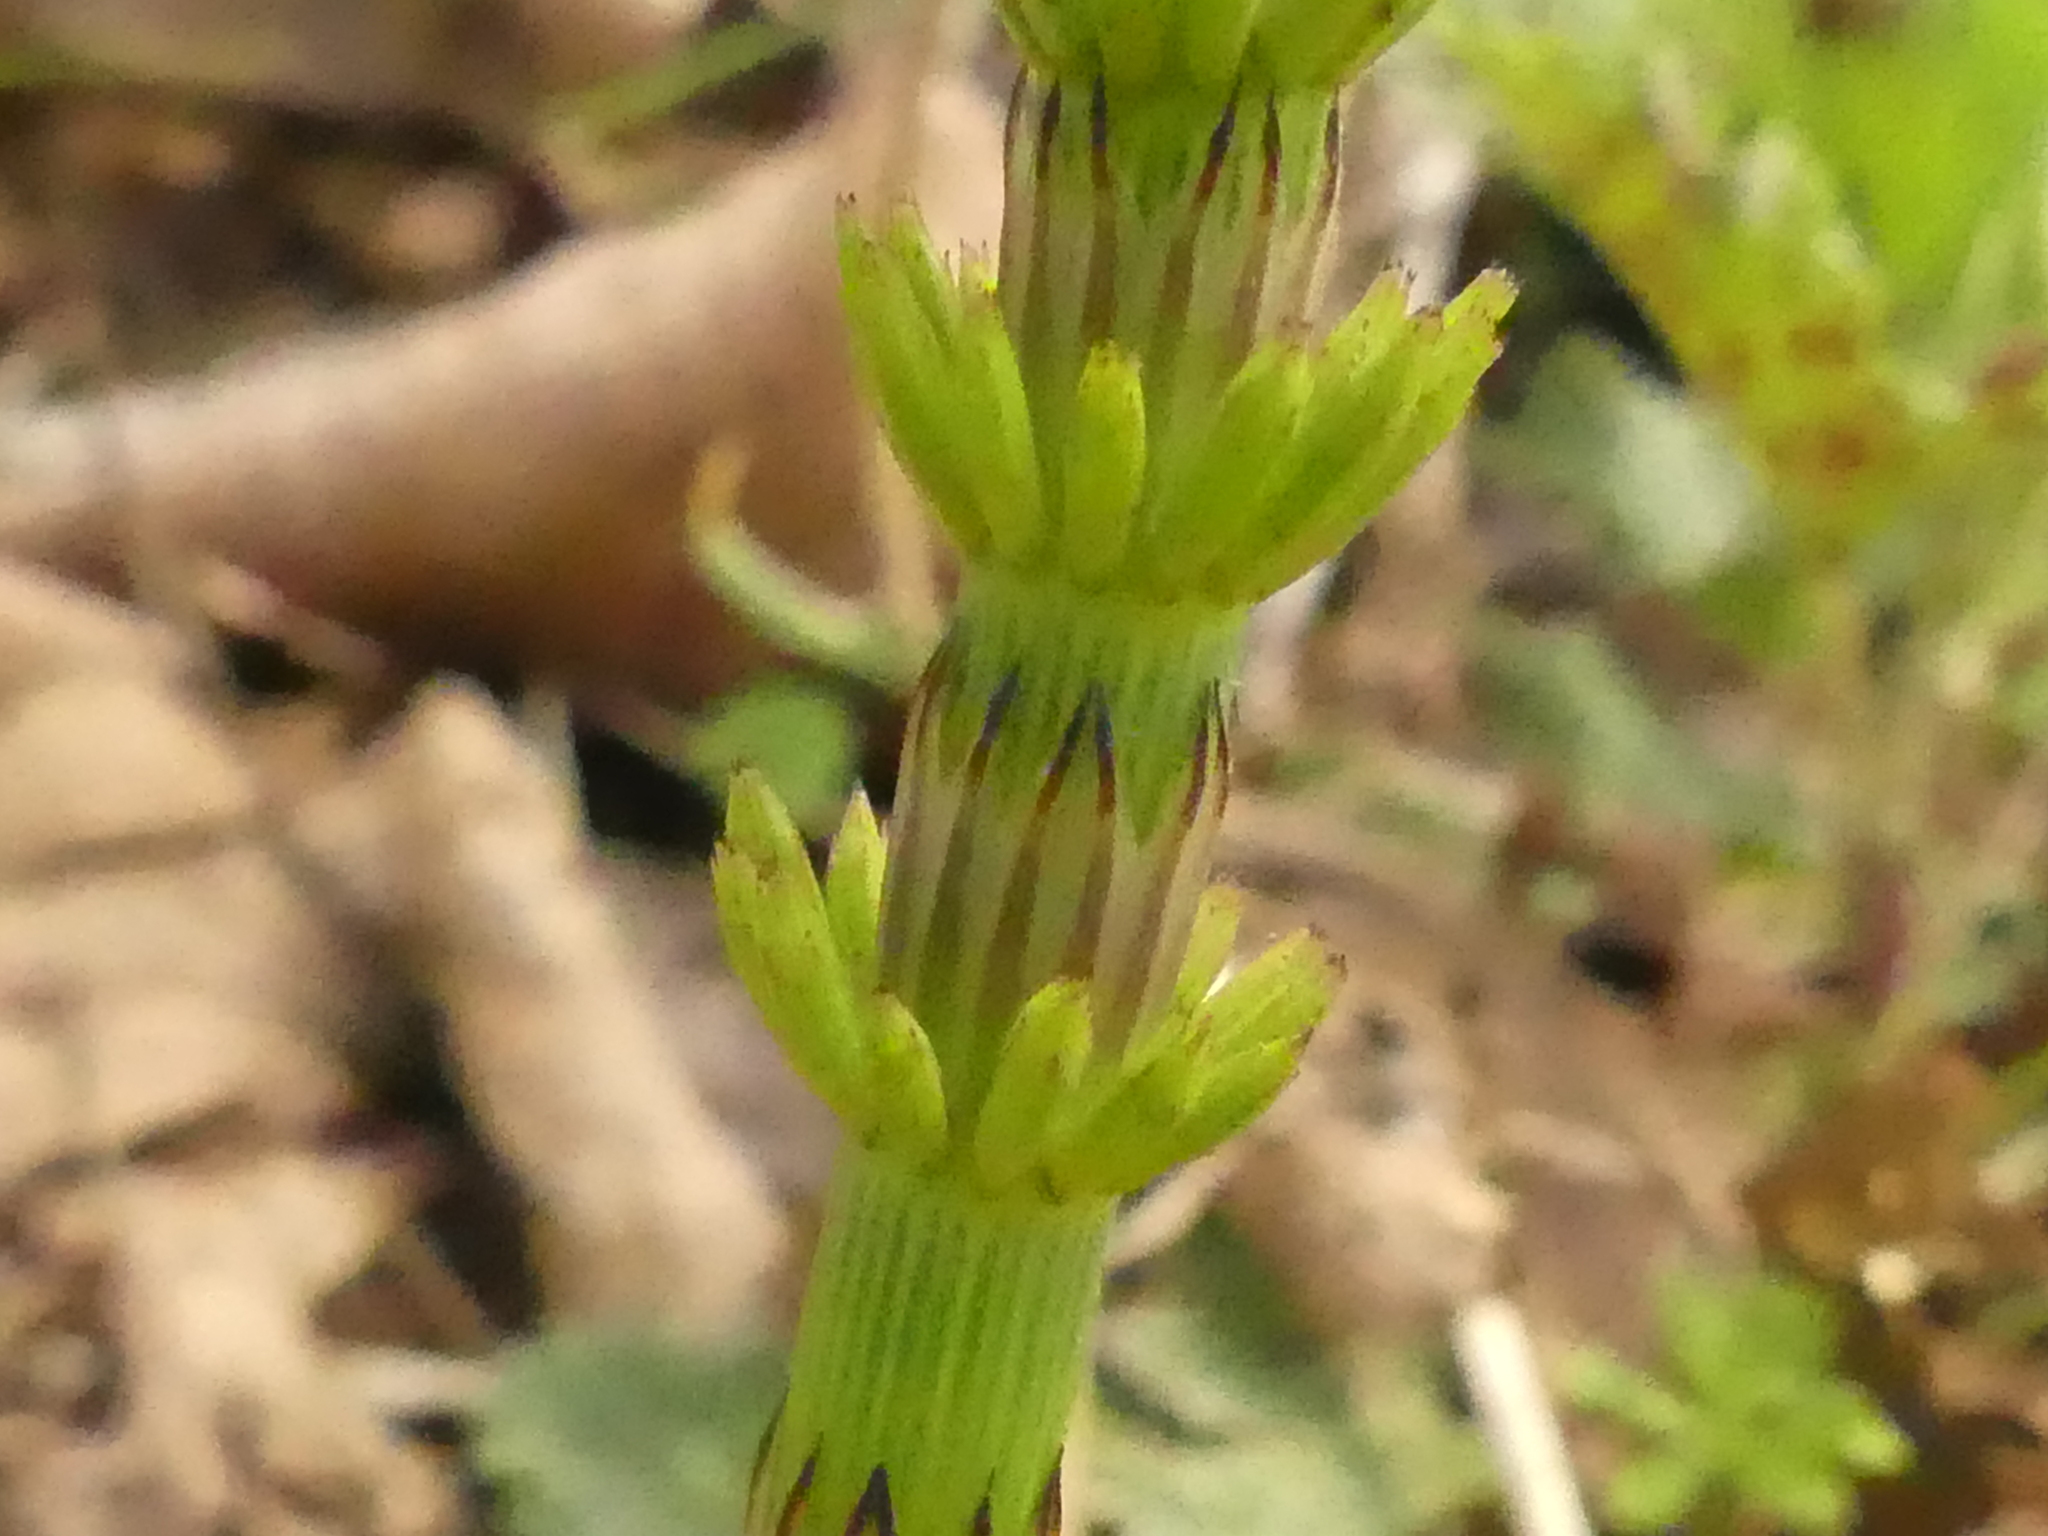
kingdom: Plantae
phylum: Tracheophyta
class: Polypodiopsida
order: Equisetales
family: Equisetaceae
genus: Equisetum
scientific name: Equisetum arvense
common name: Field horsetail
